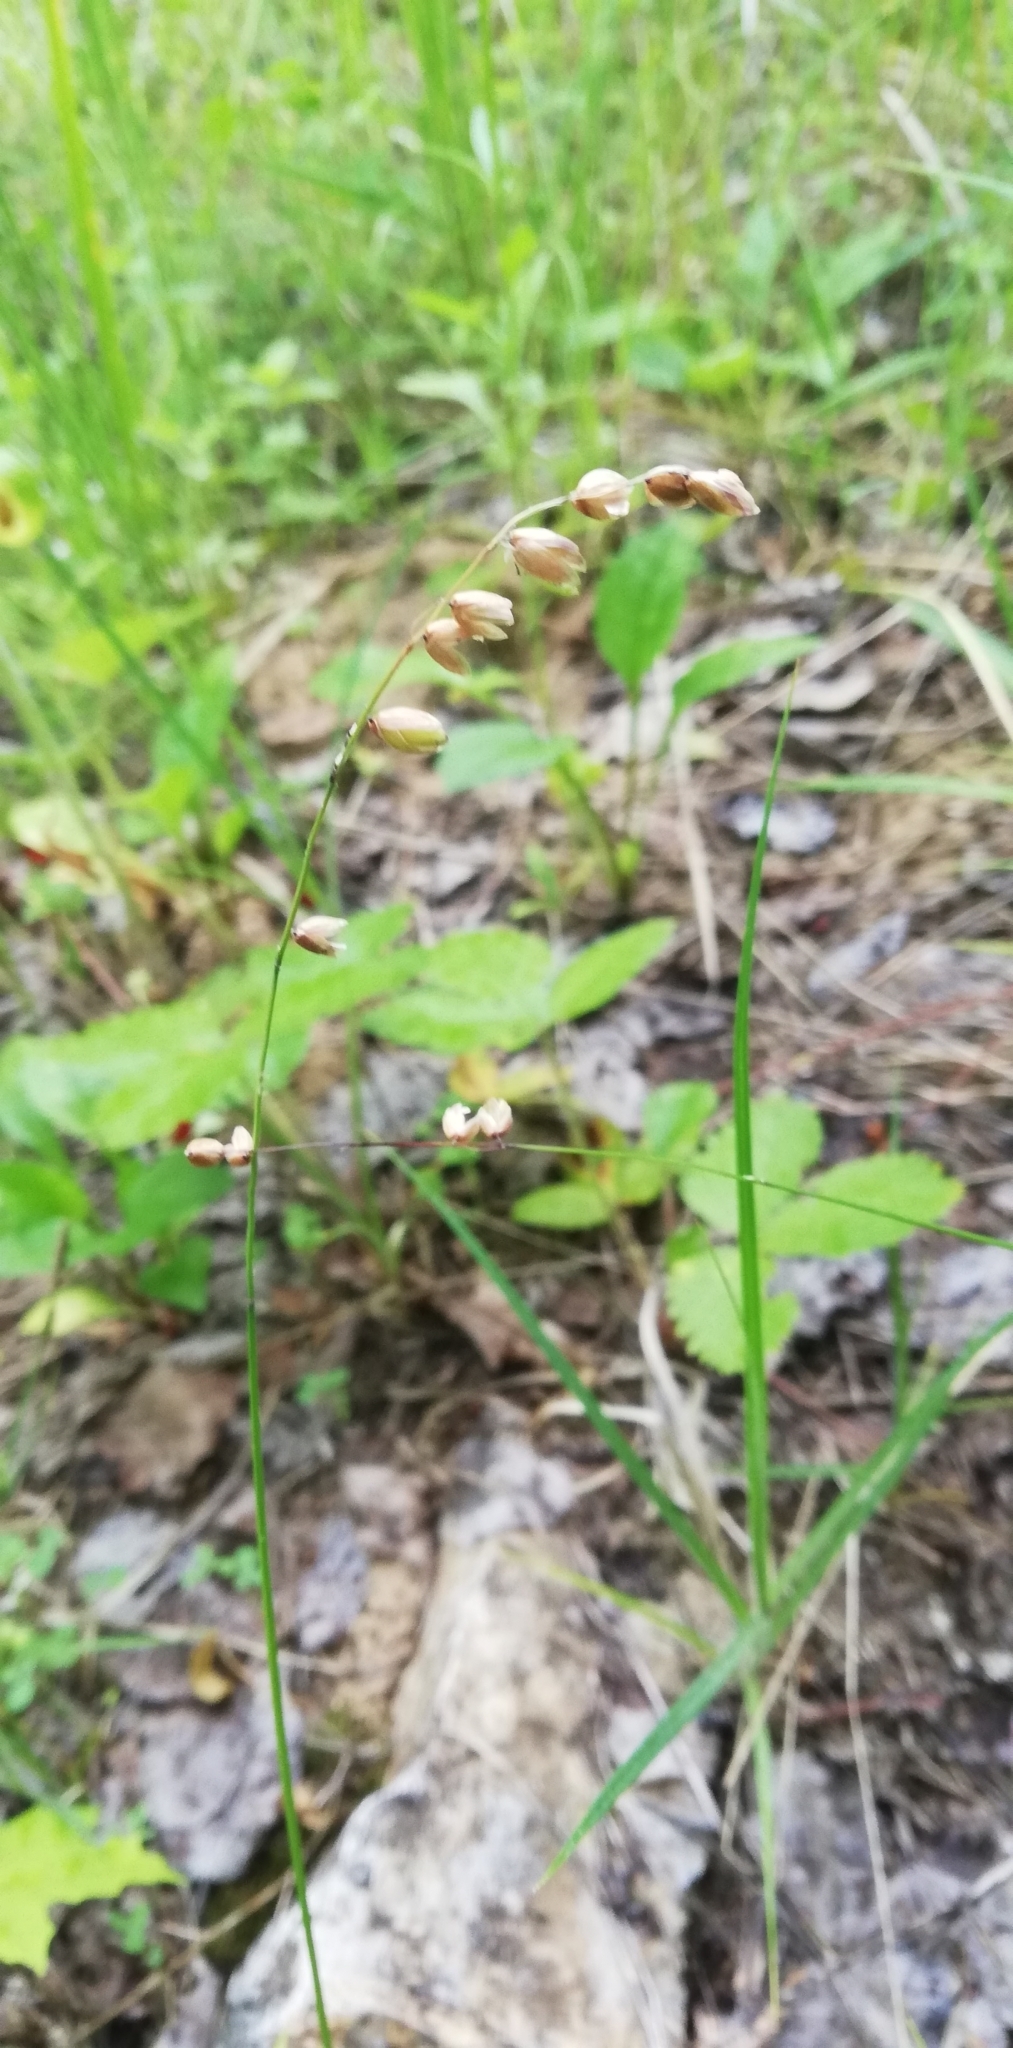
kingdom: Plantae
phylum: Tracheophyta
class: Liliopsida
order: Poales
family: Poaceae
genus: Melica
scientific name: Melica nutans
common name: Mountain melick
